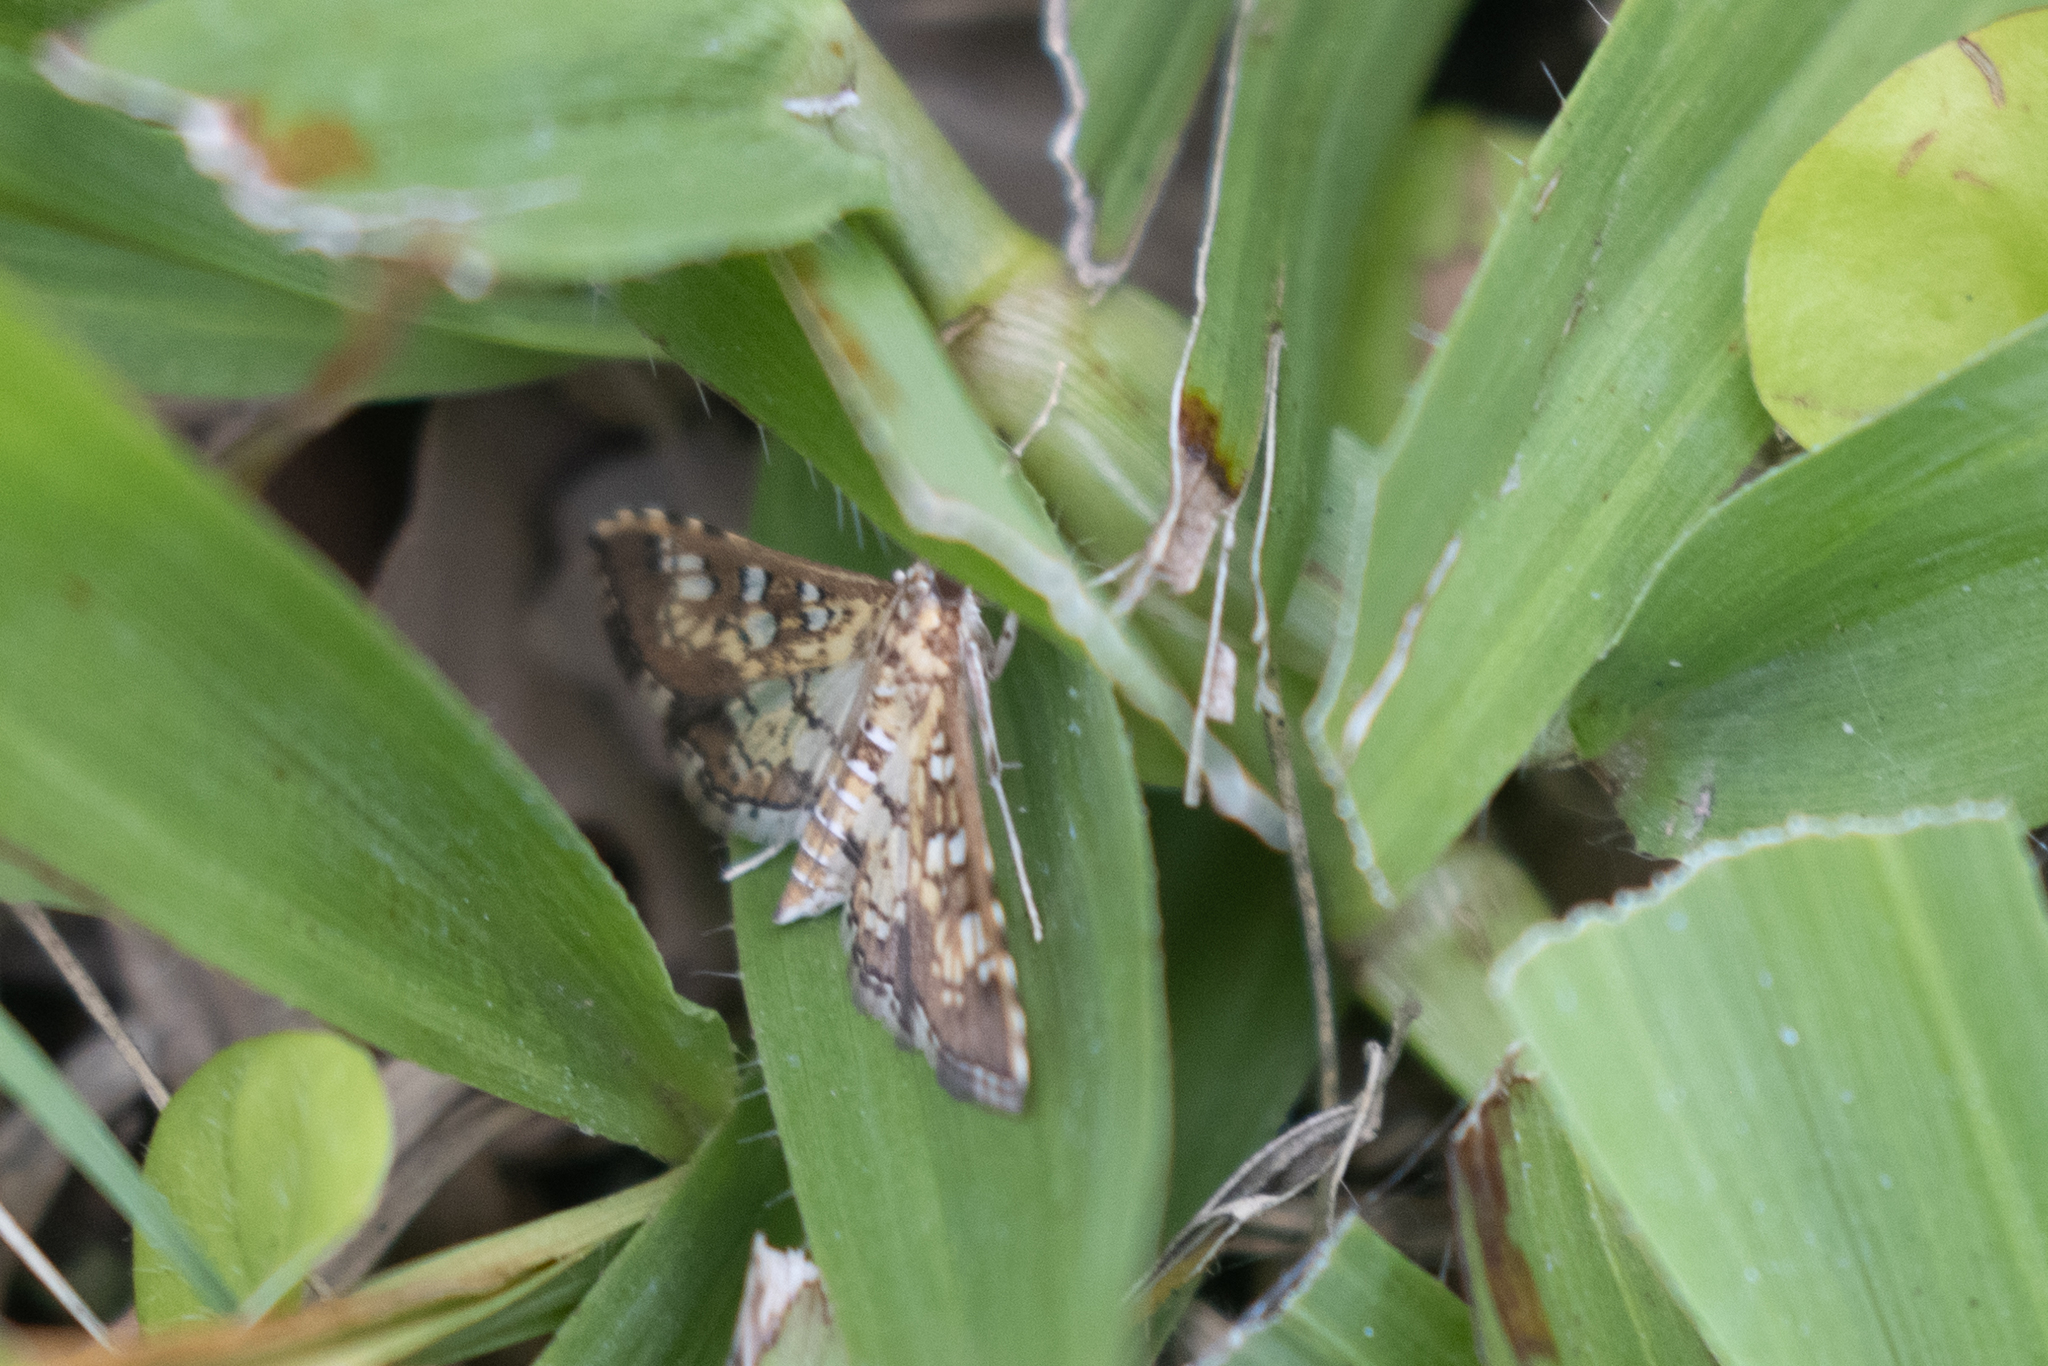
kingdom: Animalia
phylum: Arthropoda
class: Insecta
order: Lepidoptera
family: Crambidae
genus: Samea
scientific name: Samea ecclesialis
